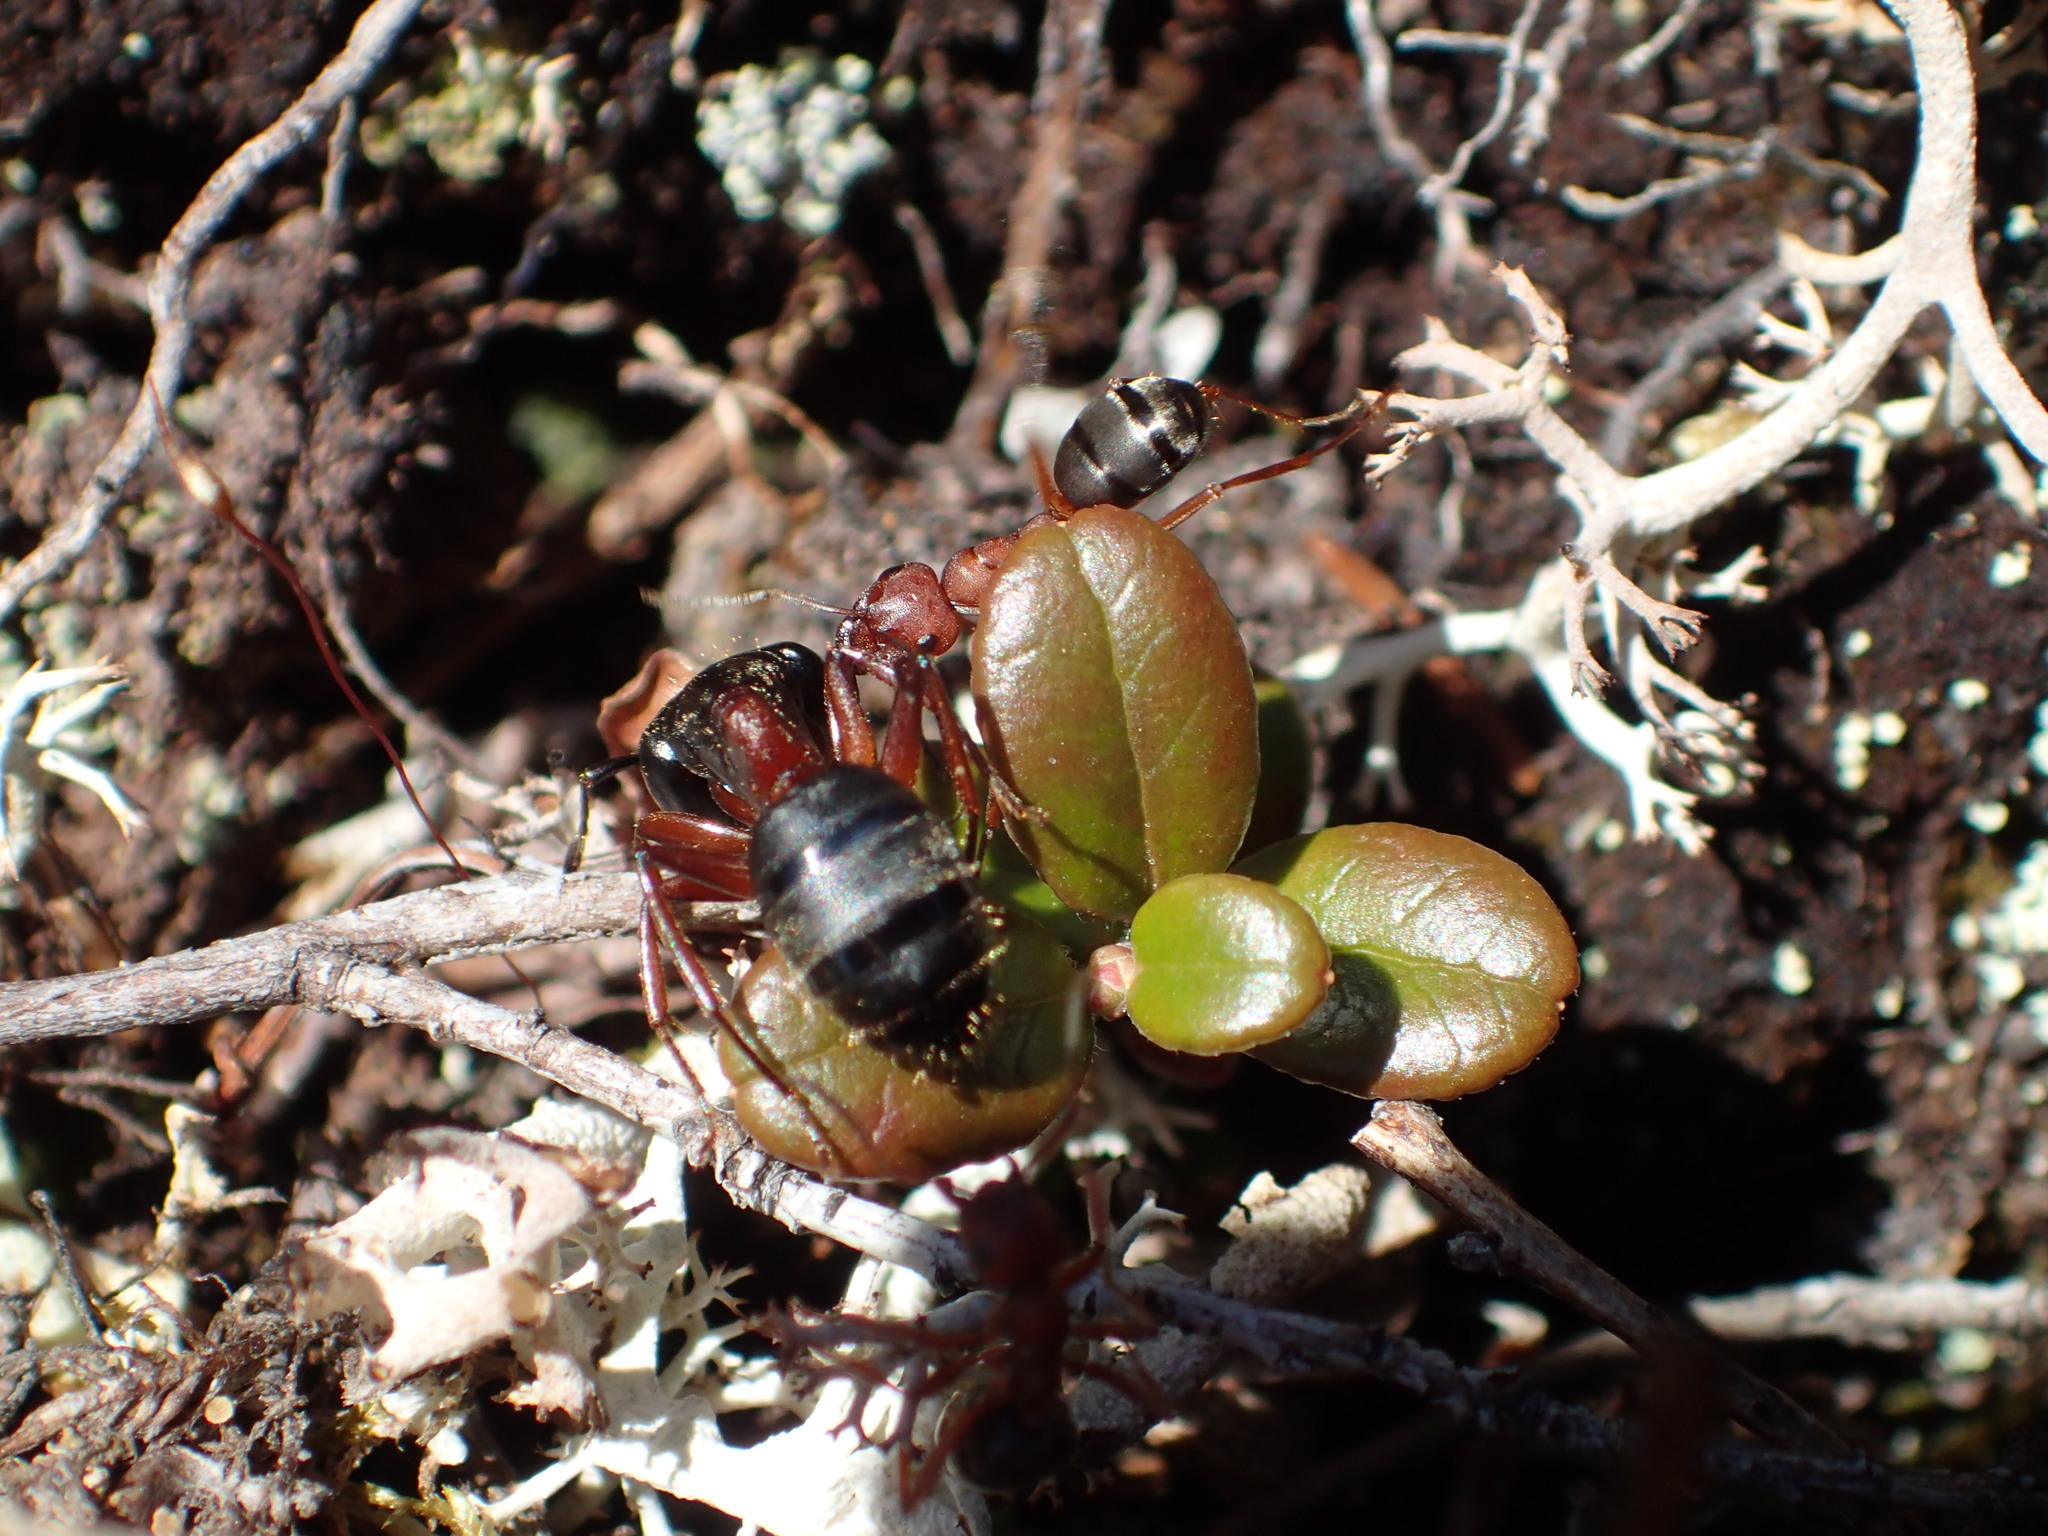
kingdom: Animalia
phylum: Arthropoda
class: Insecta
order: Hymenoptera
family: Formicidae
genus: Formica
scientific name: Formica aserva
